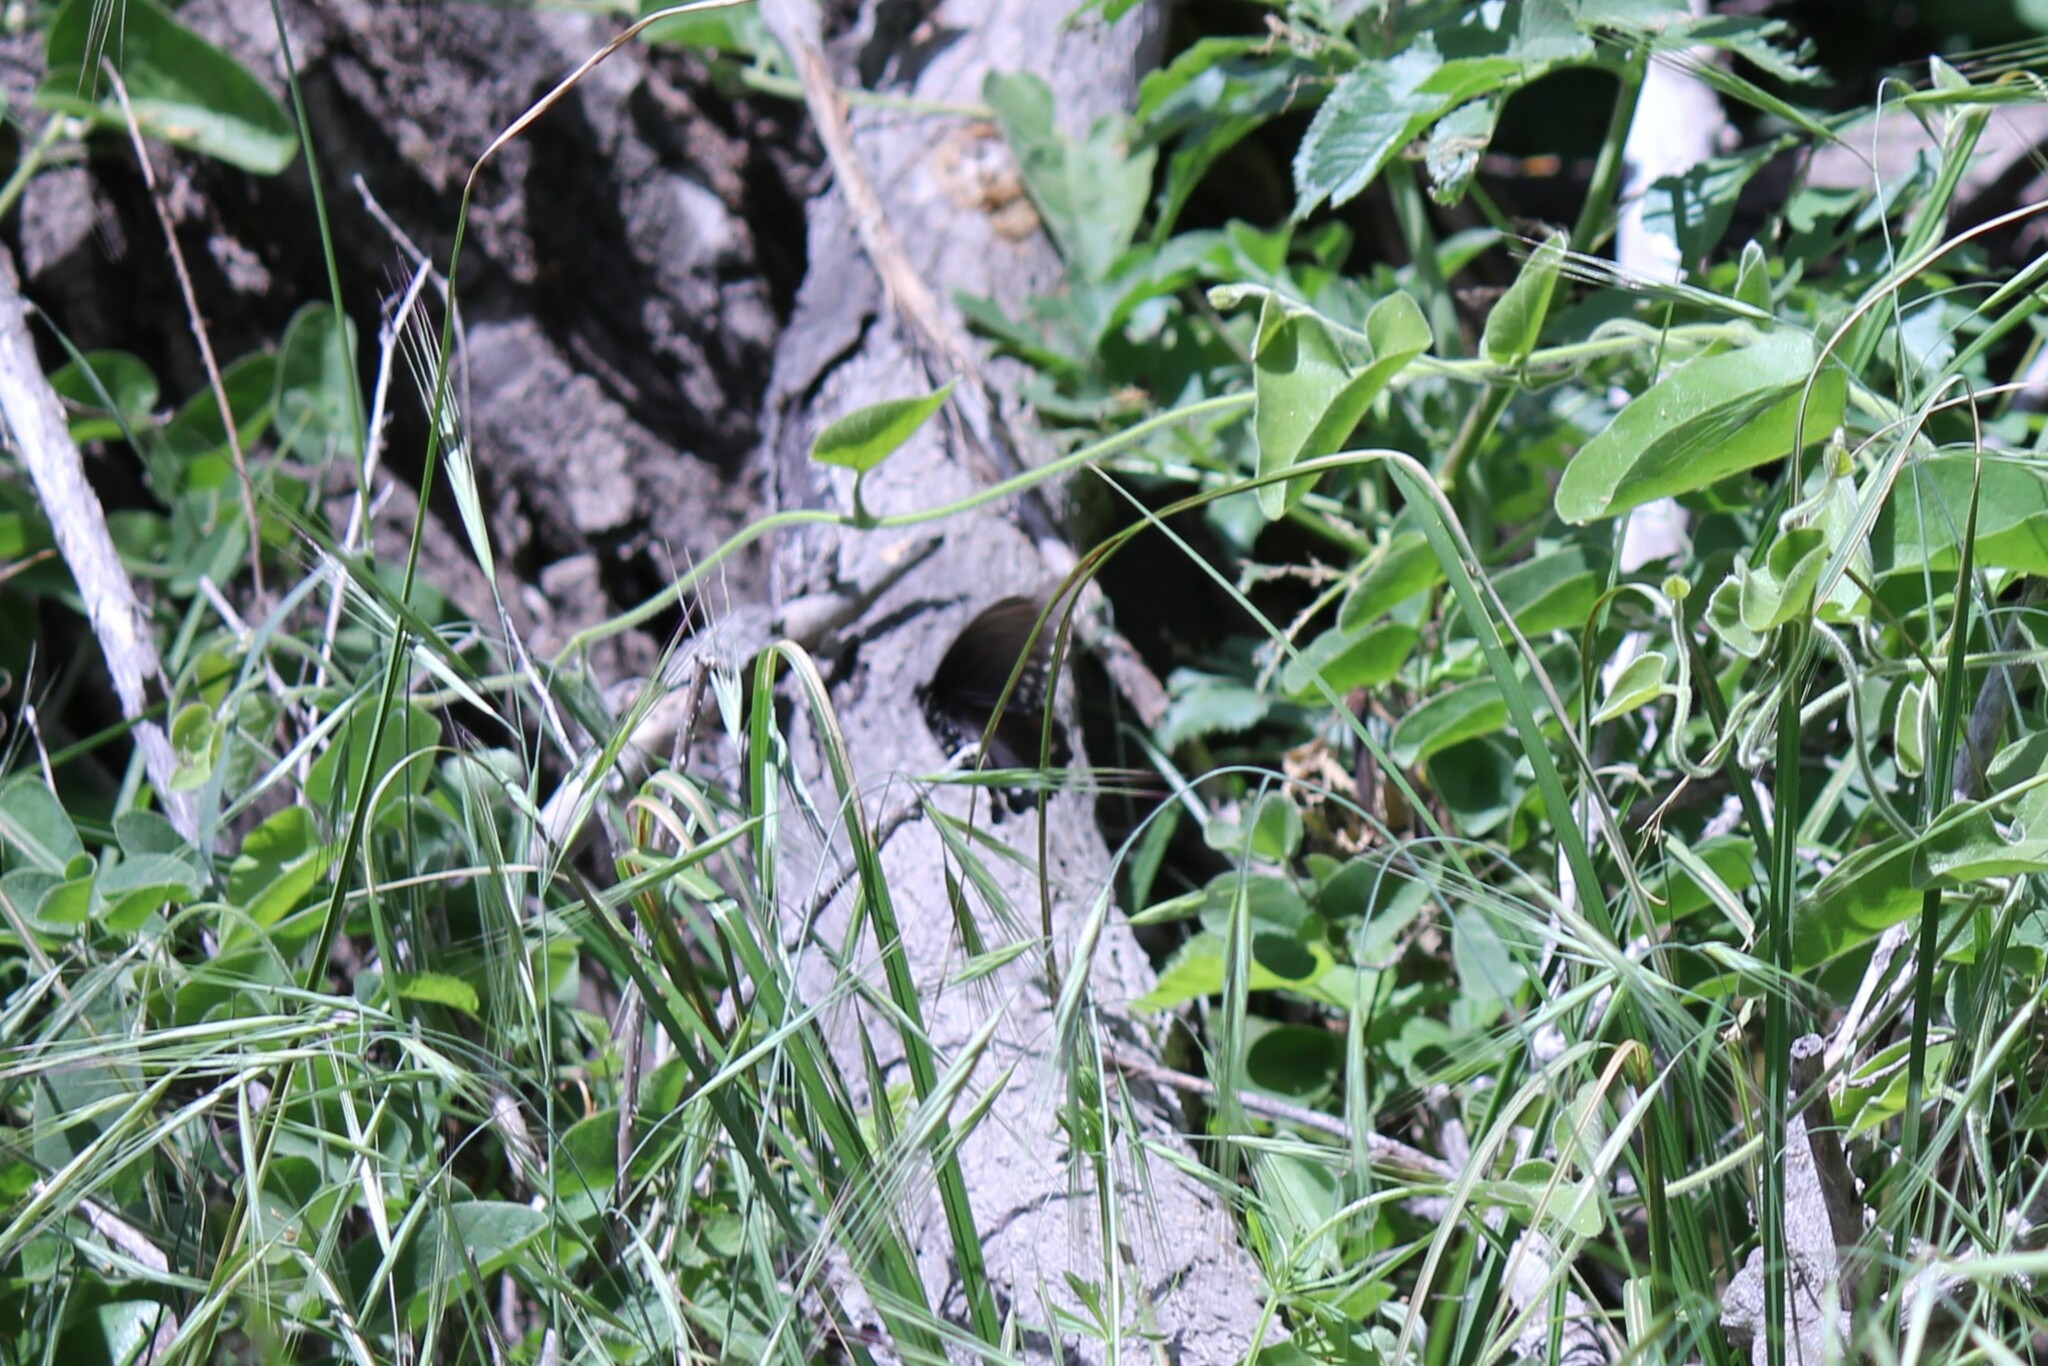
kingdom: Animalia
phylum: Arthropoda
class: Insecta
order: Lepidoptera
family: Papilionidae
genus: Battus
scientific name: Battus philenor
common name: Pipevine swallowtail
